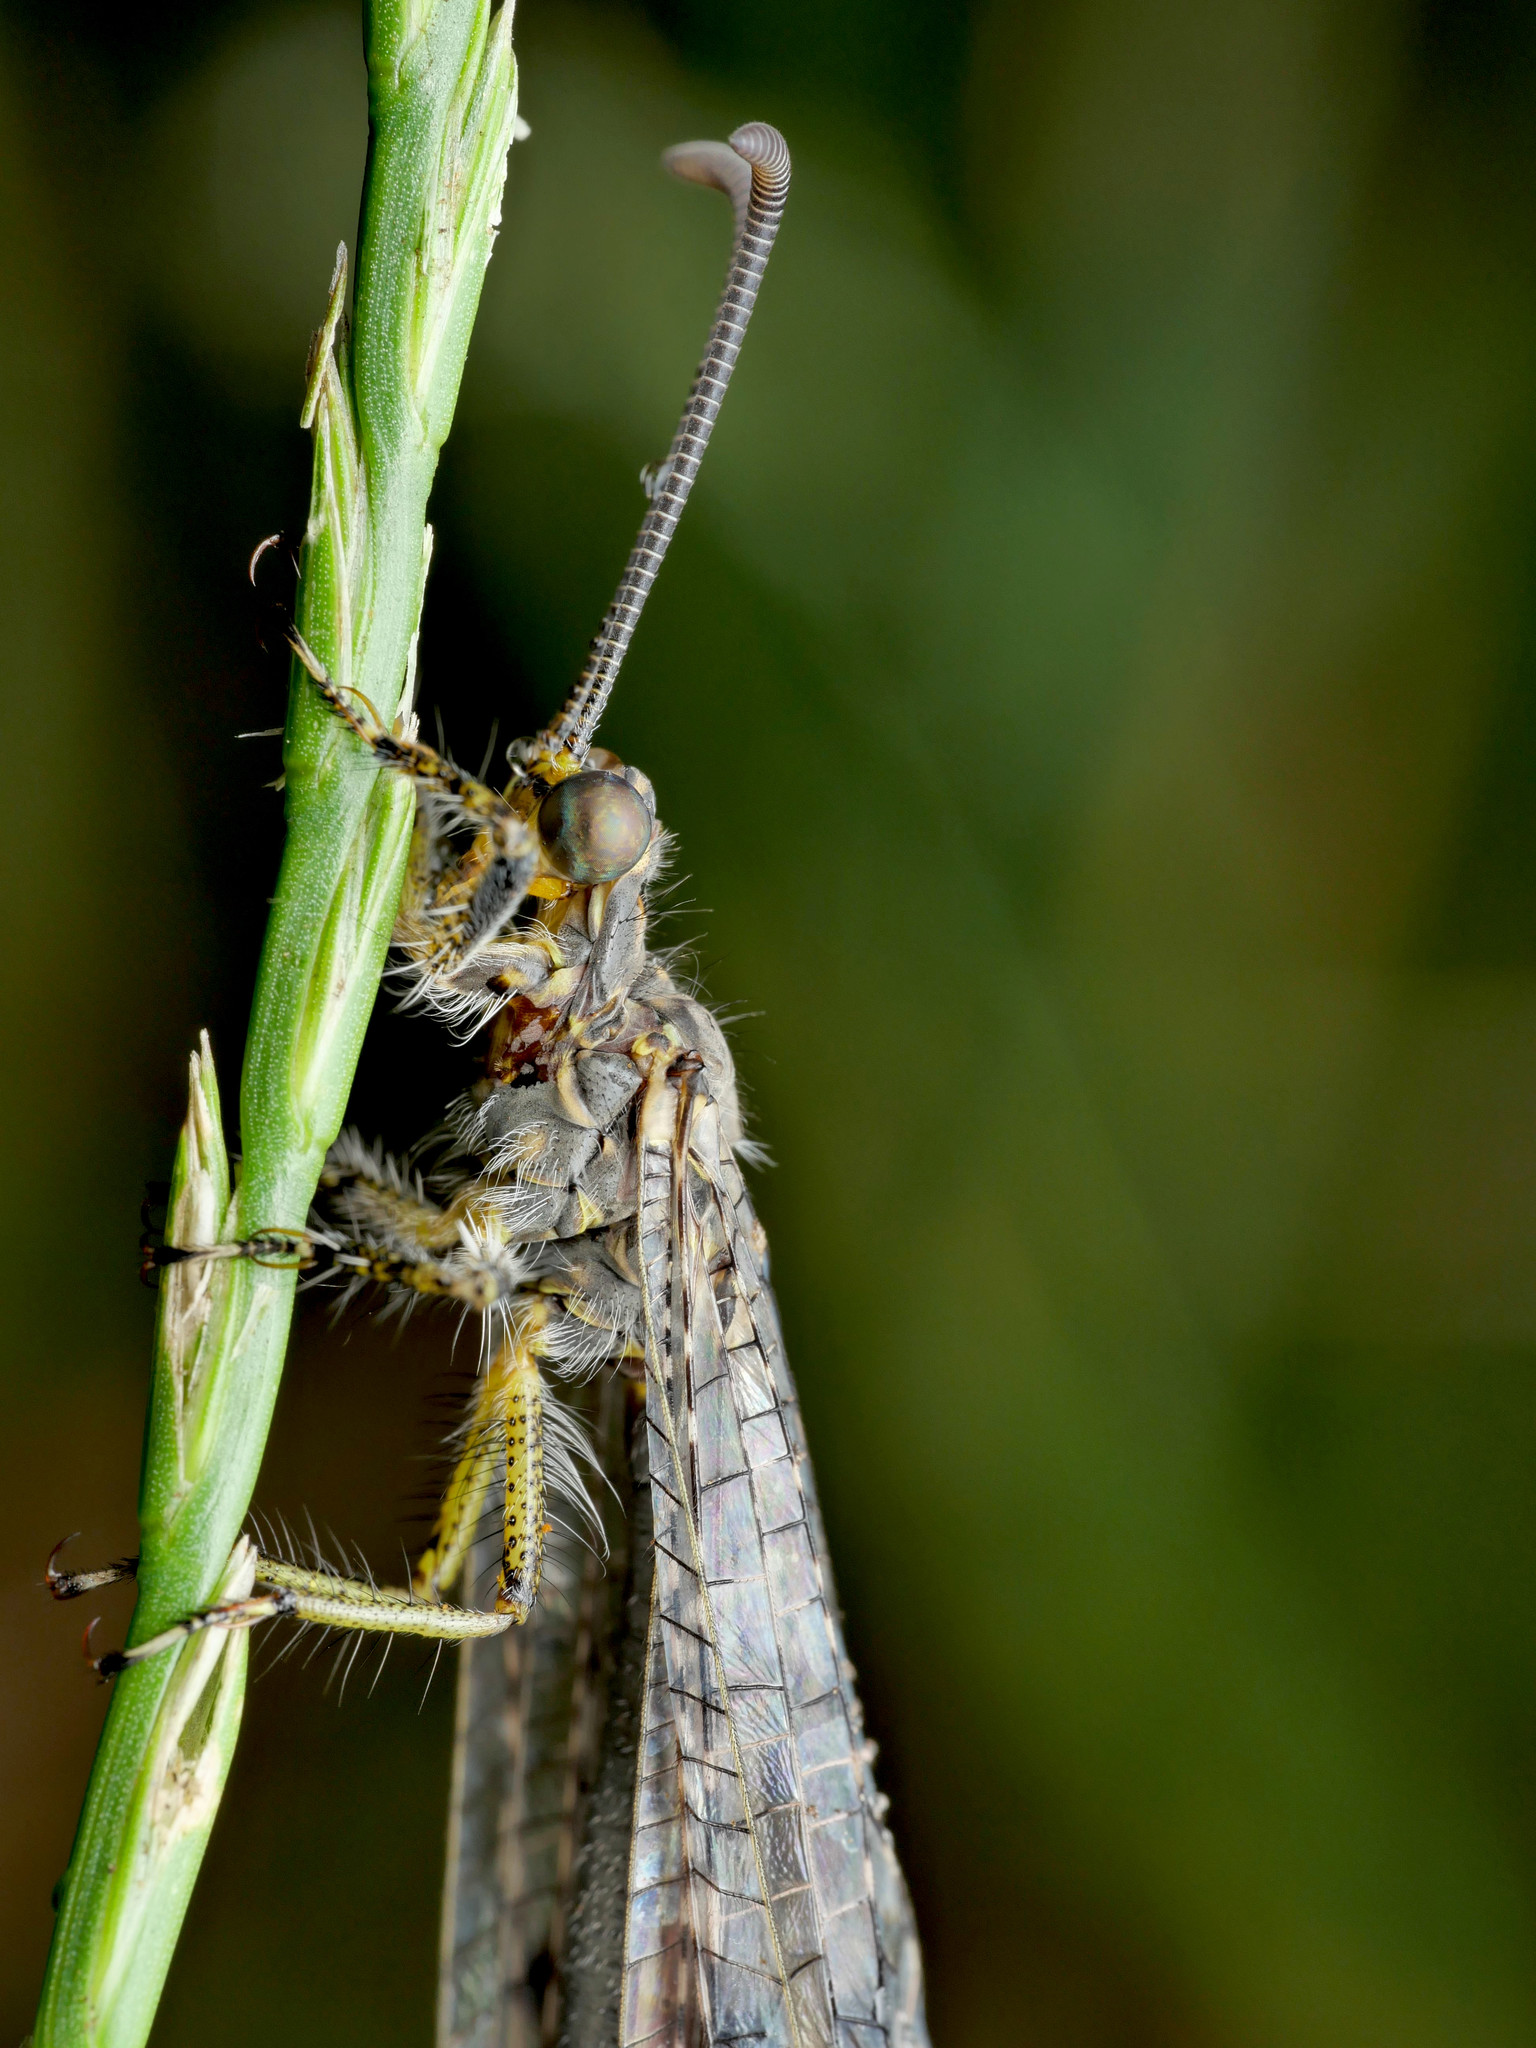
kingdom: Animalia
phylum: Arthropoda
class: Insecta
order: Neuroptera
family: Myrmeleontidae
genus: Distoleon
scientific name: Distoleon tetragrammicus
